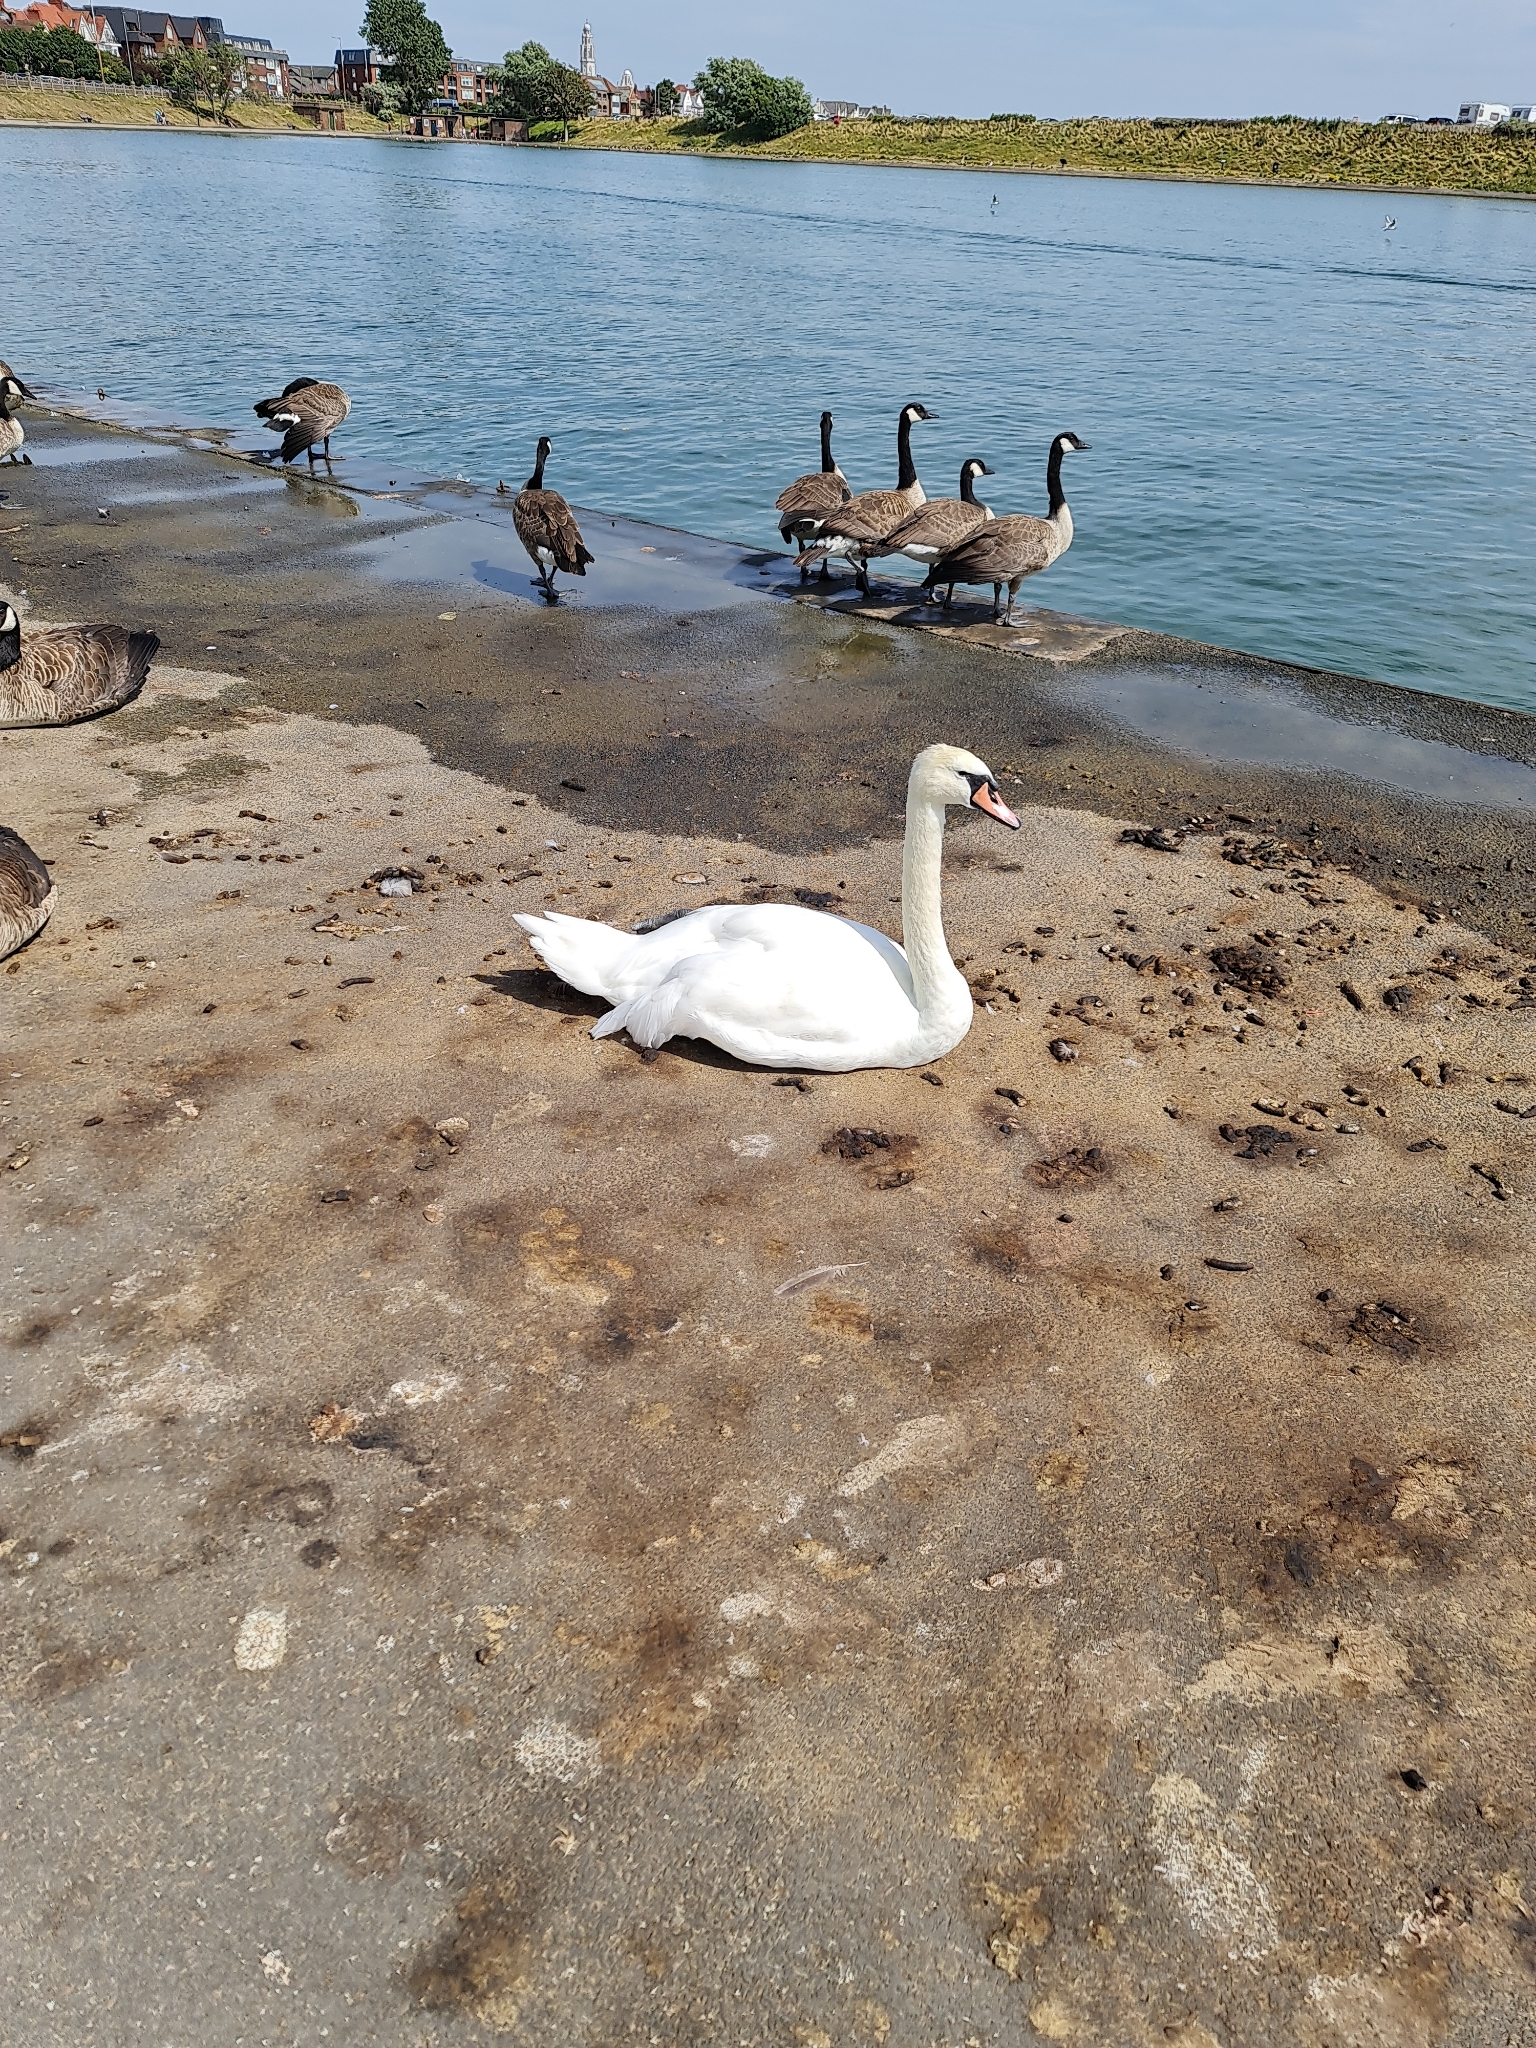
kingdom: Animalia
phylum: Chordata
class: Aves
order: Anseriformes
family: Anatidae
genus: Cygnus
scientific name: Cygnus olor
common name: Mute swan
